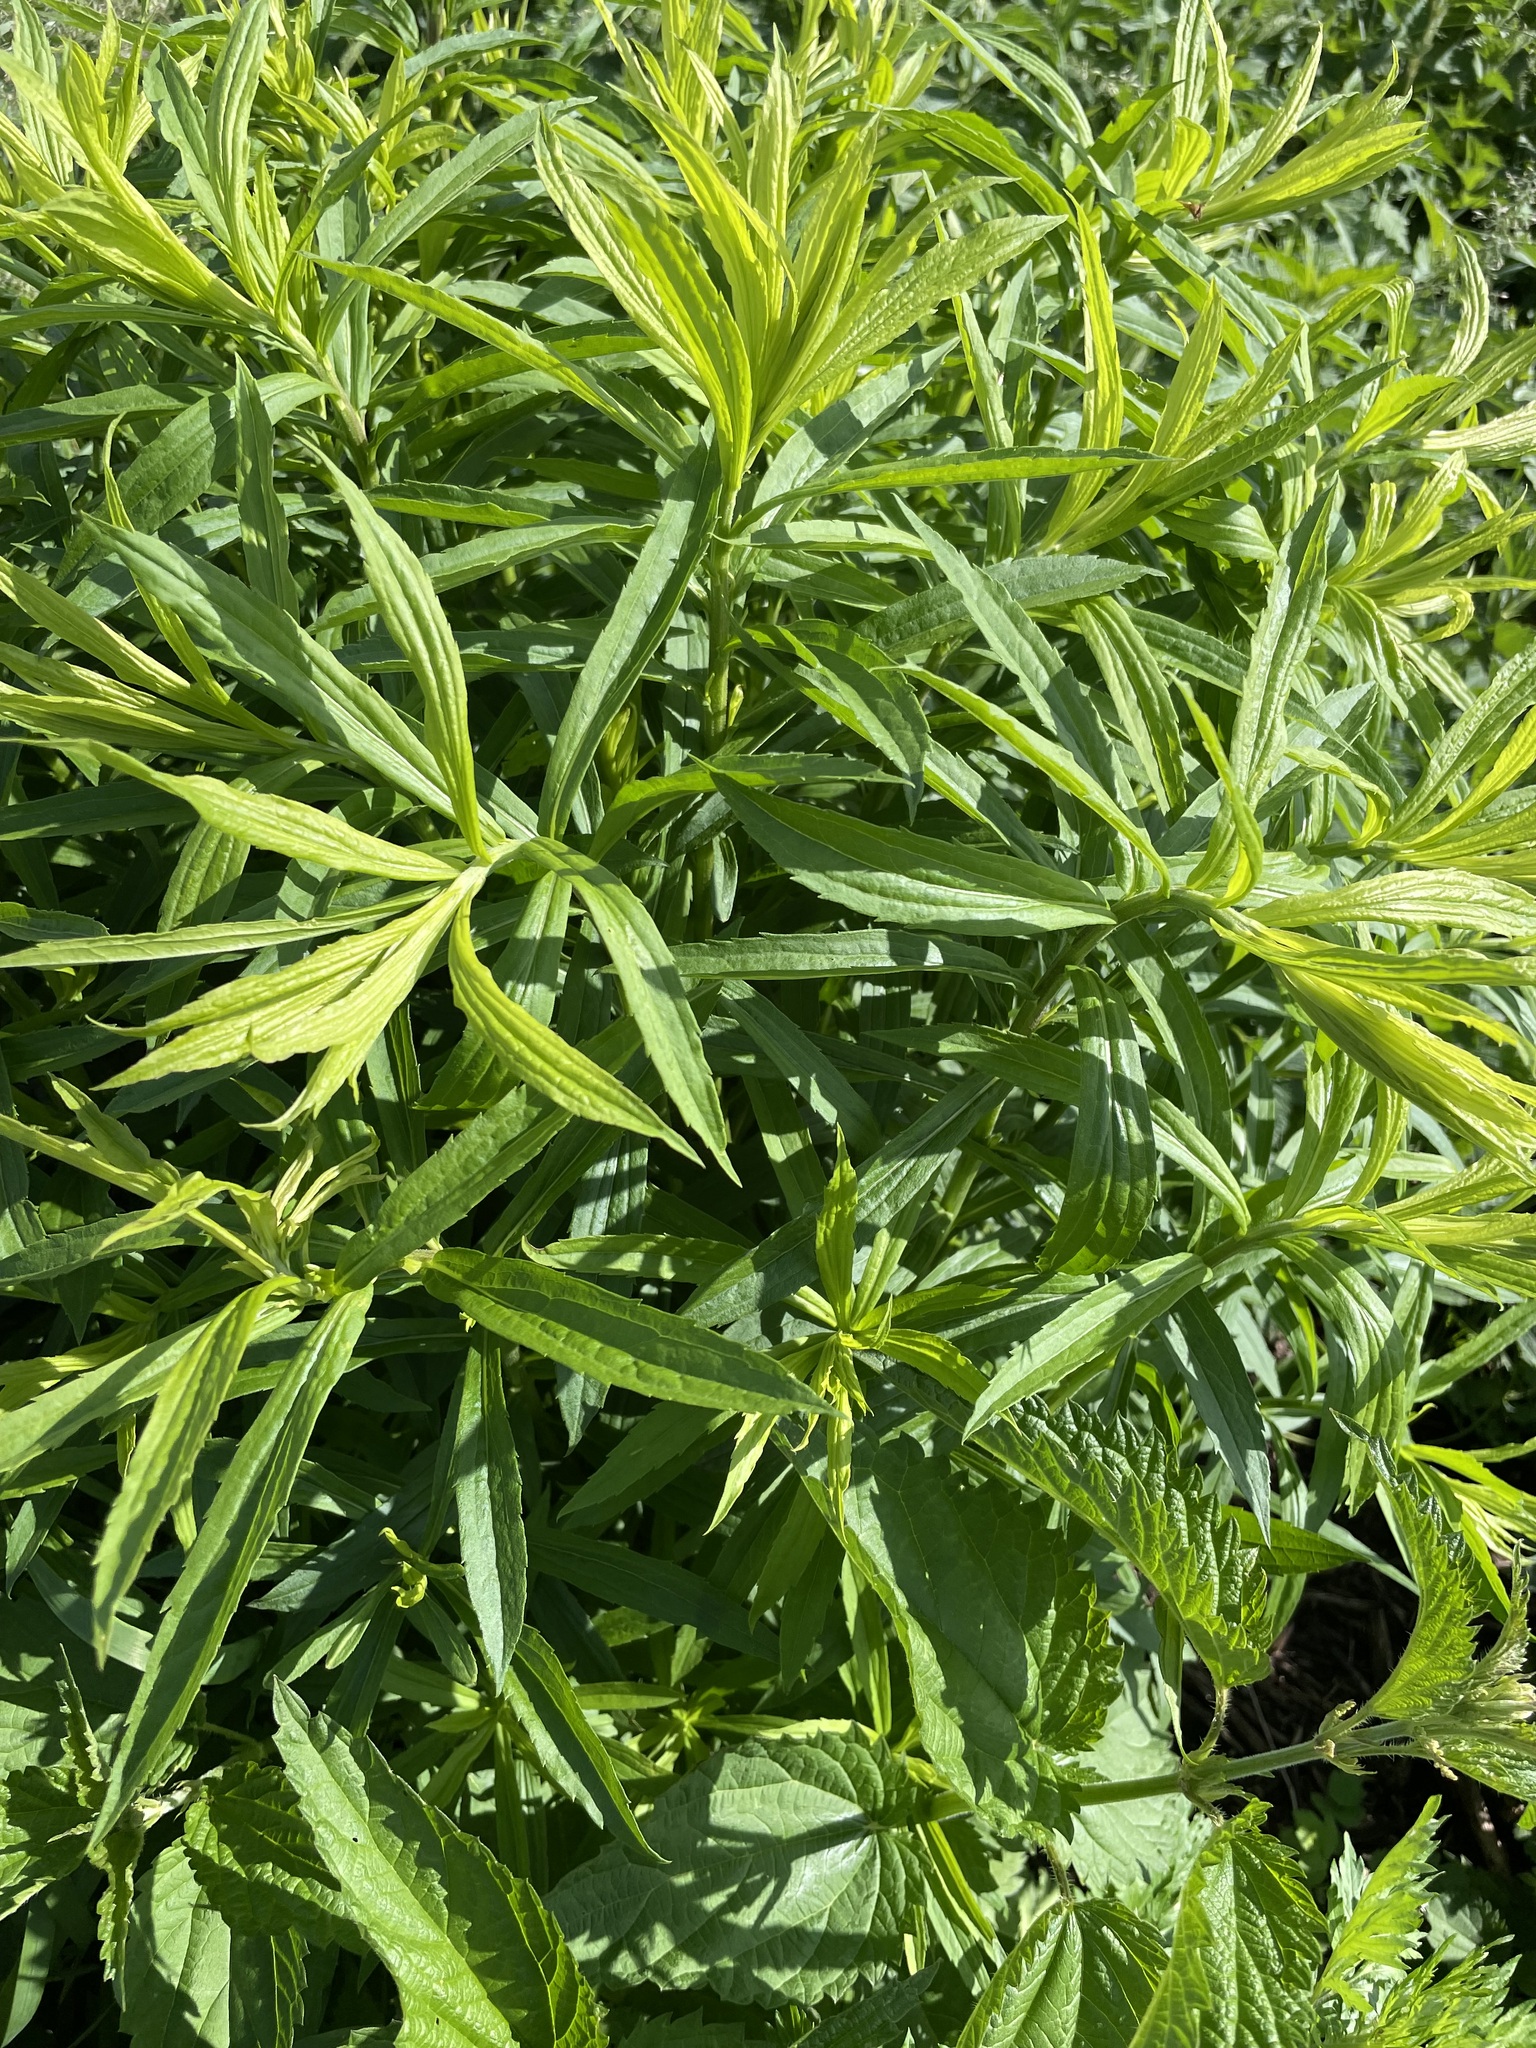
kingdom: Plantae
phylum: Tracheophyta
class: Magnoliopsida
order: Asterales
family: Asteraceae
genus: Solidago
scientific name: Solidago canadensis
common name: Canada goldenrod
